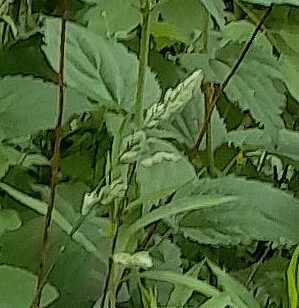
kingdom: Plantae
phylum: Tracheophyta
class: Liliopsida
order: Poales
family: Poaceae
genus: Dactylis
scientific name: Dactylis glomerata
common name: Orchardgrass
